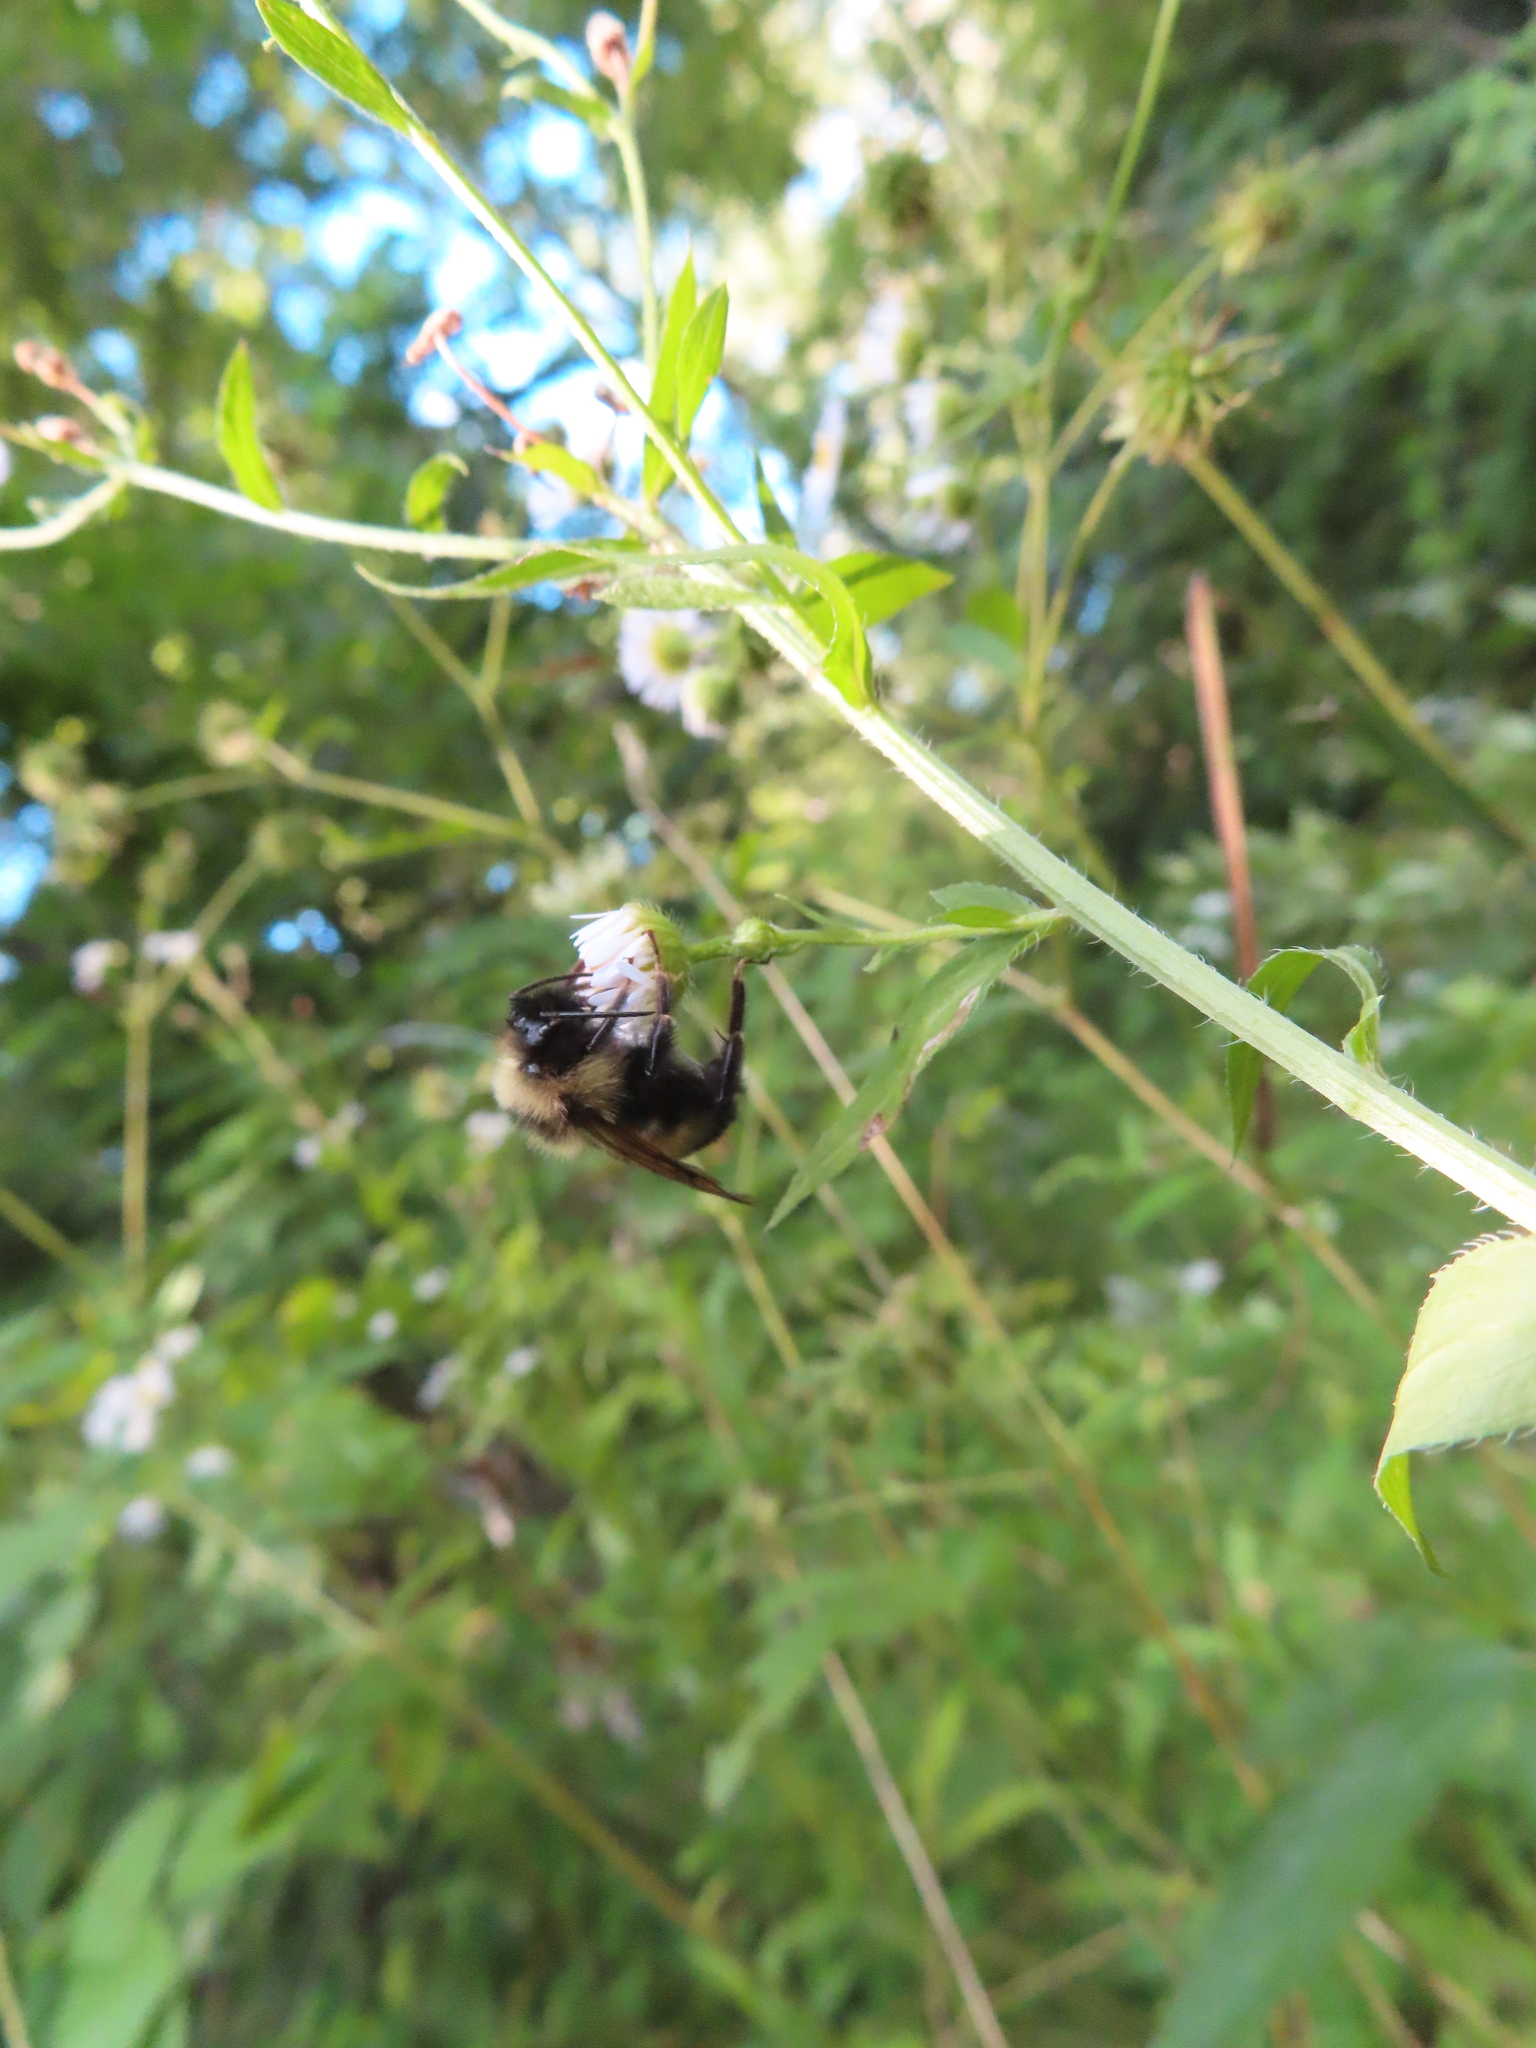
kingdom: Animalia
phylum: Arthropoda
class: Insecta
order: Hymenoptera
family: Apidae
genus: Bombus
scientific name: Bombus citrinus
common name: Lemon cuckoo bumble bee
